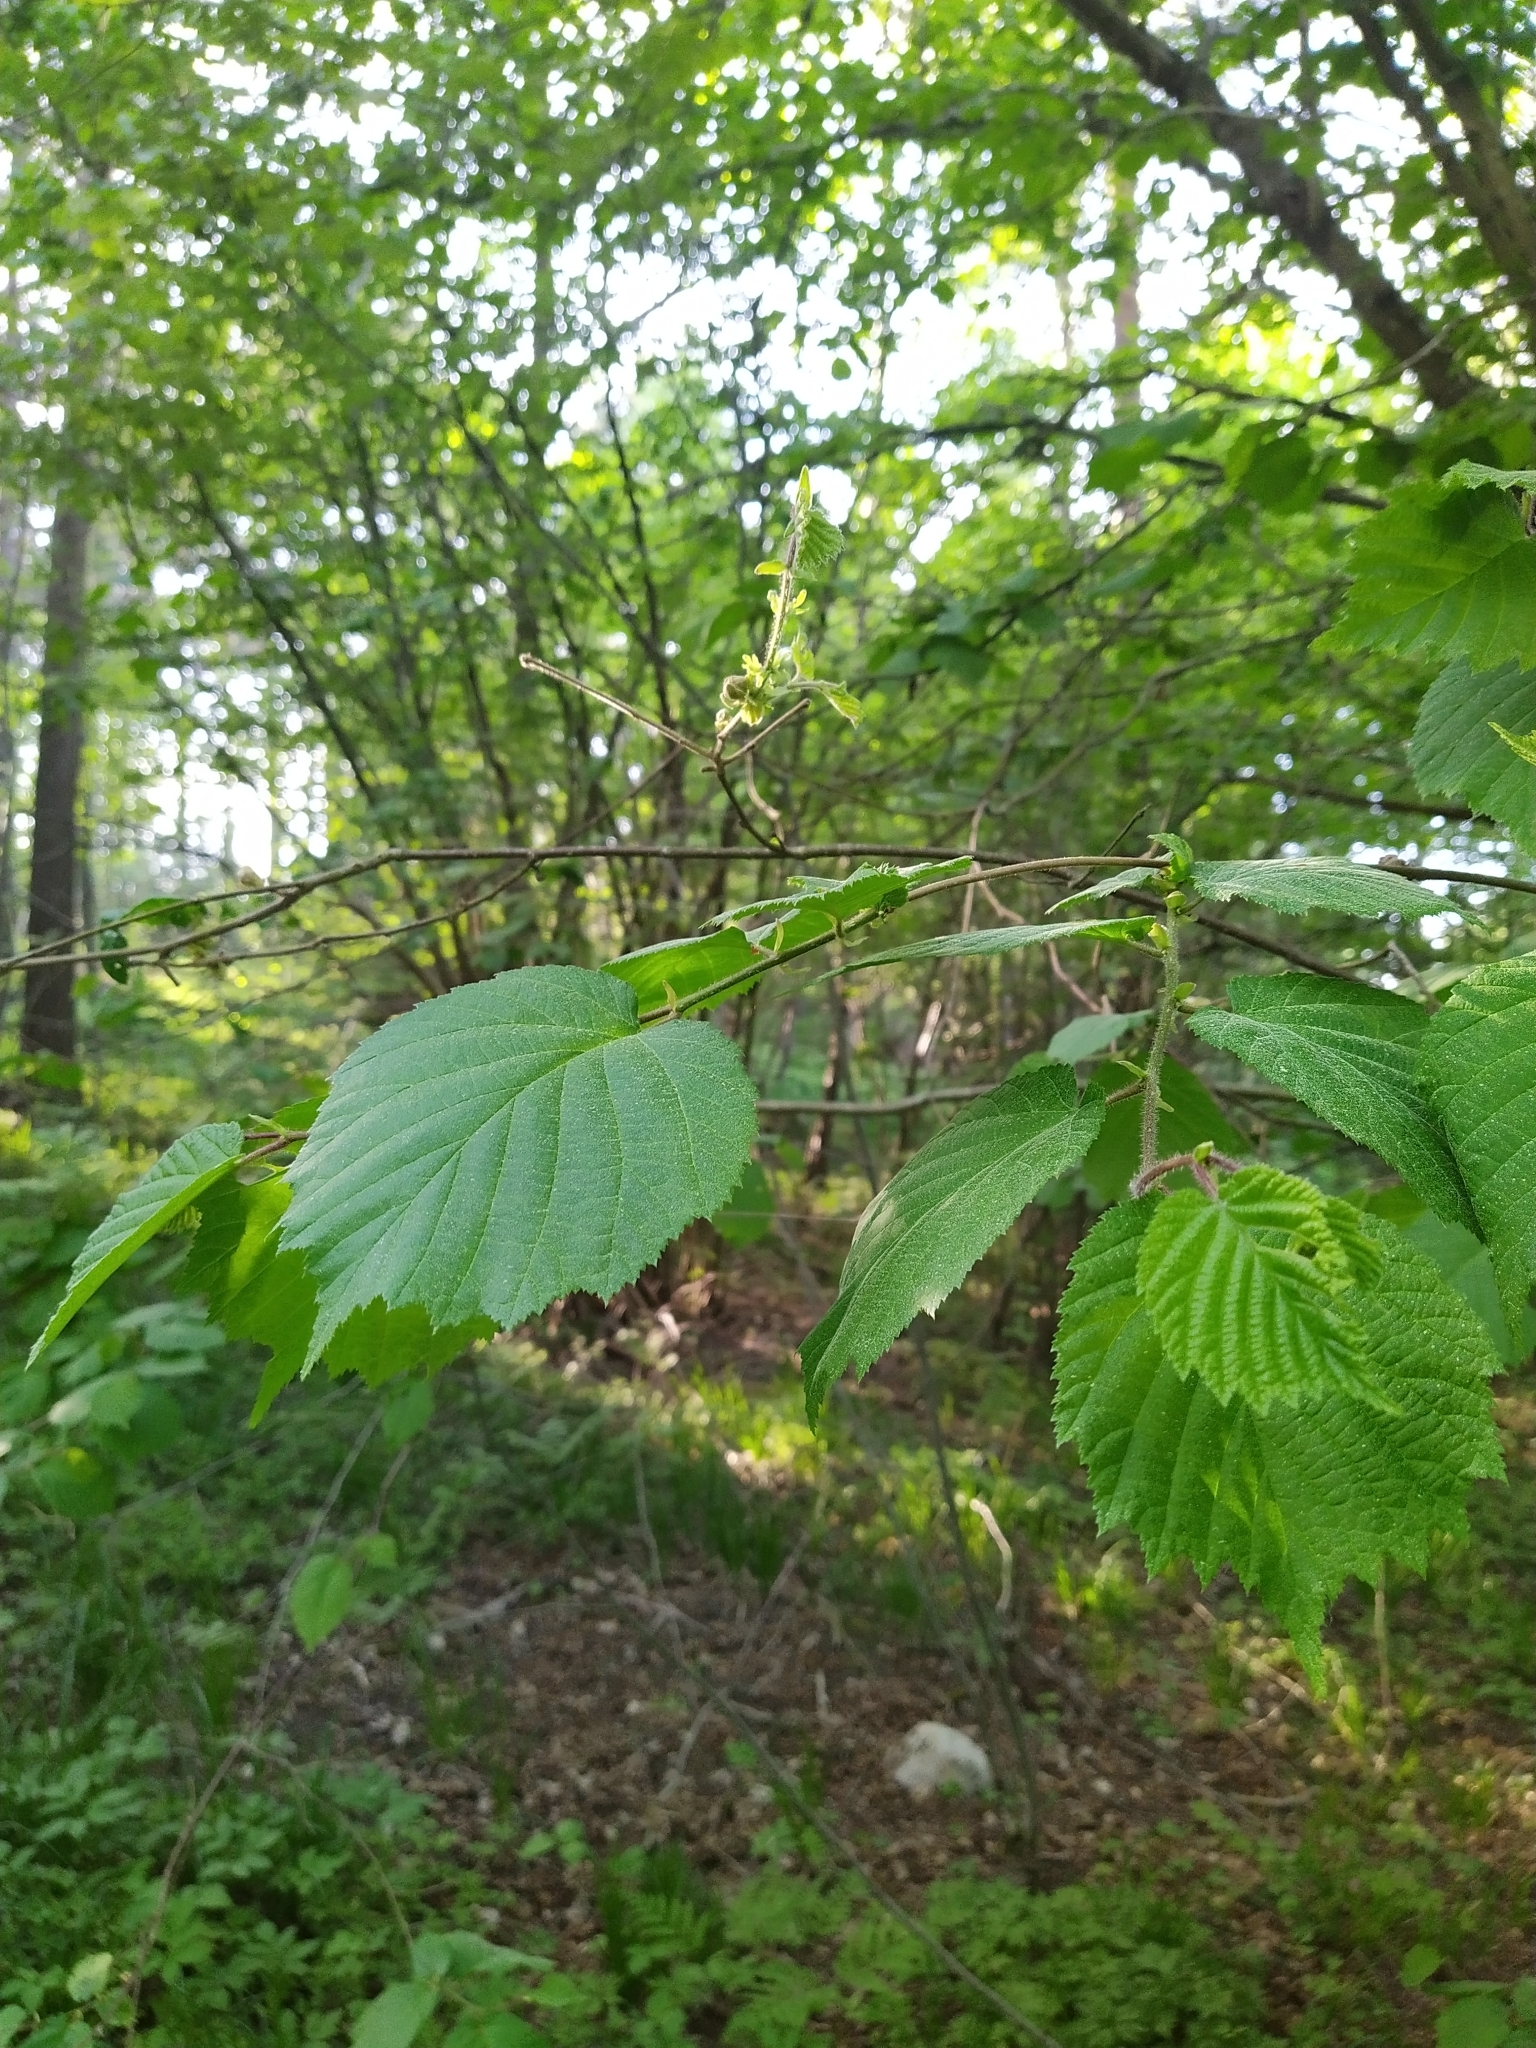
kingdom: Plantae
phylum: Tracheophyta
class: Magnoliopsida
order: Fagales
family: Betulaceae
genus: Corylus
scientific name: Corylus avellana
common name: European hazel
